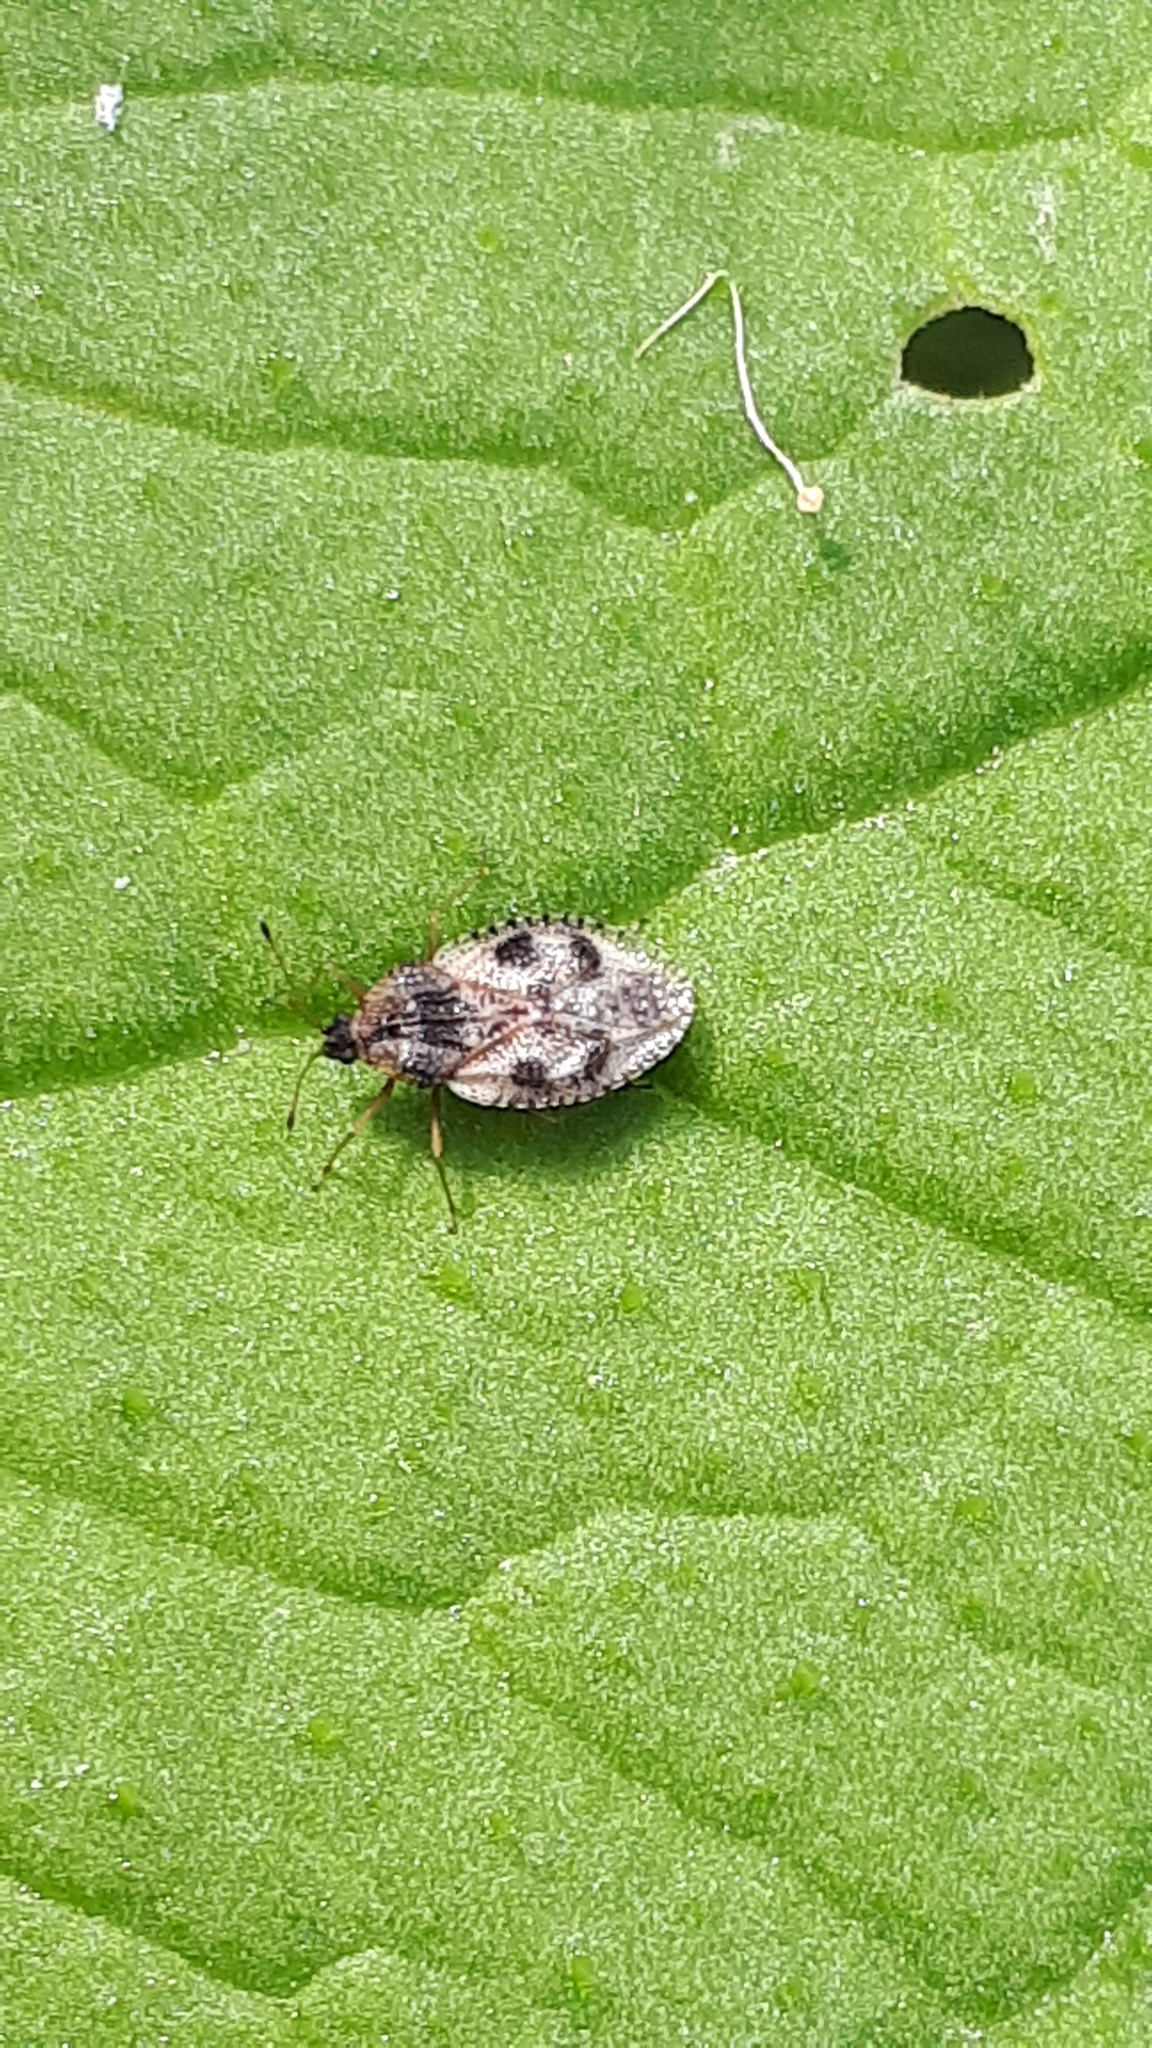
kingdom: Animalia
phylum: Arthropoda
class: Insecta
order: Hemiptera
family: Tingidae
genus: Dictyla
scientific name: Dictyla humuli
